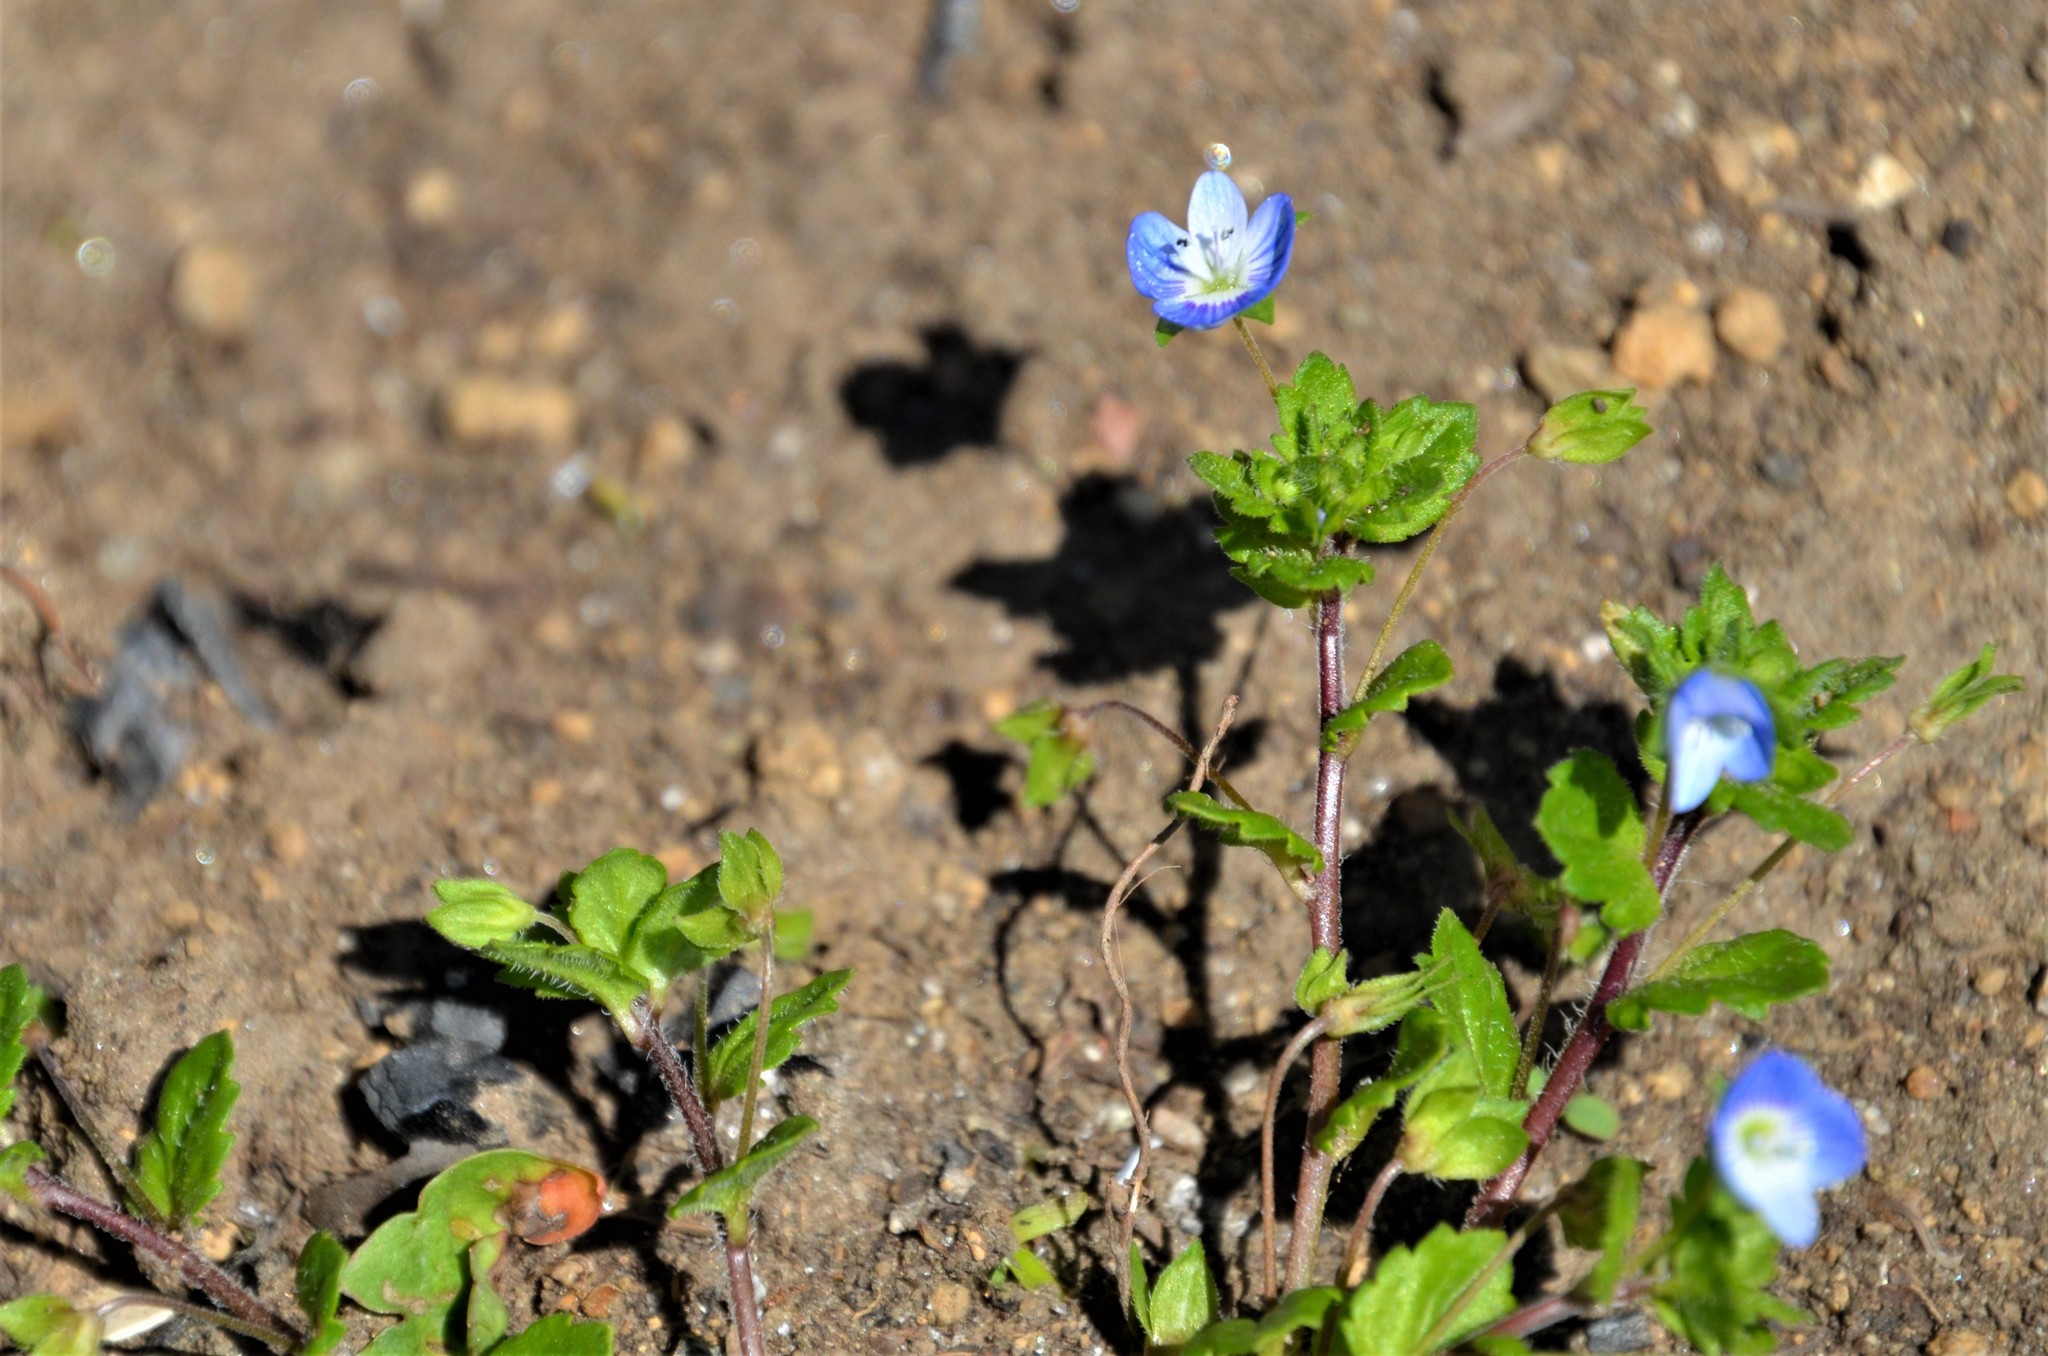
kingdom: Plantae
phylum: Tracheophyta
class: Magnoliopsida
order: Lamiales
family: Plantaginaceae
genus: Veronica
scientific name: Veronica persica
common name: Common field-speedwell
